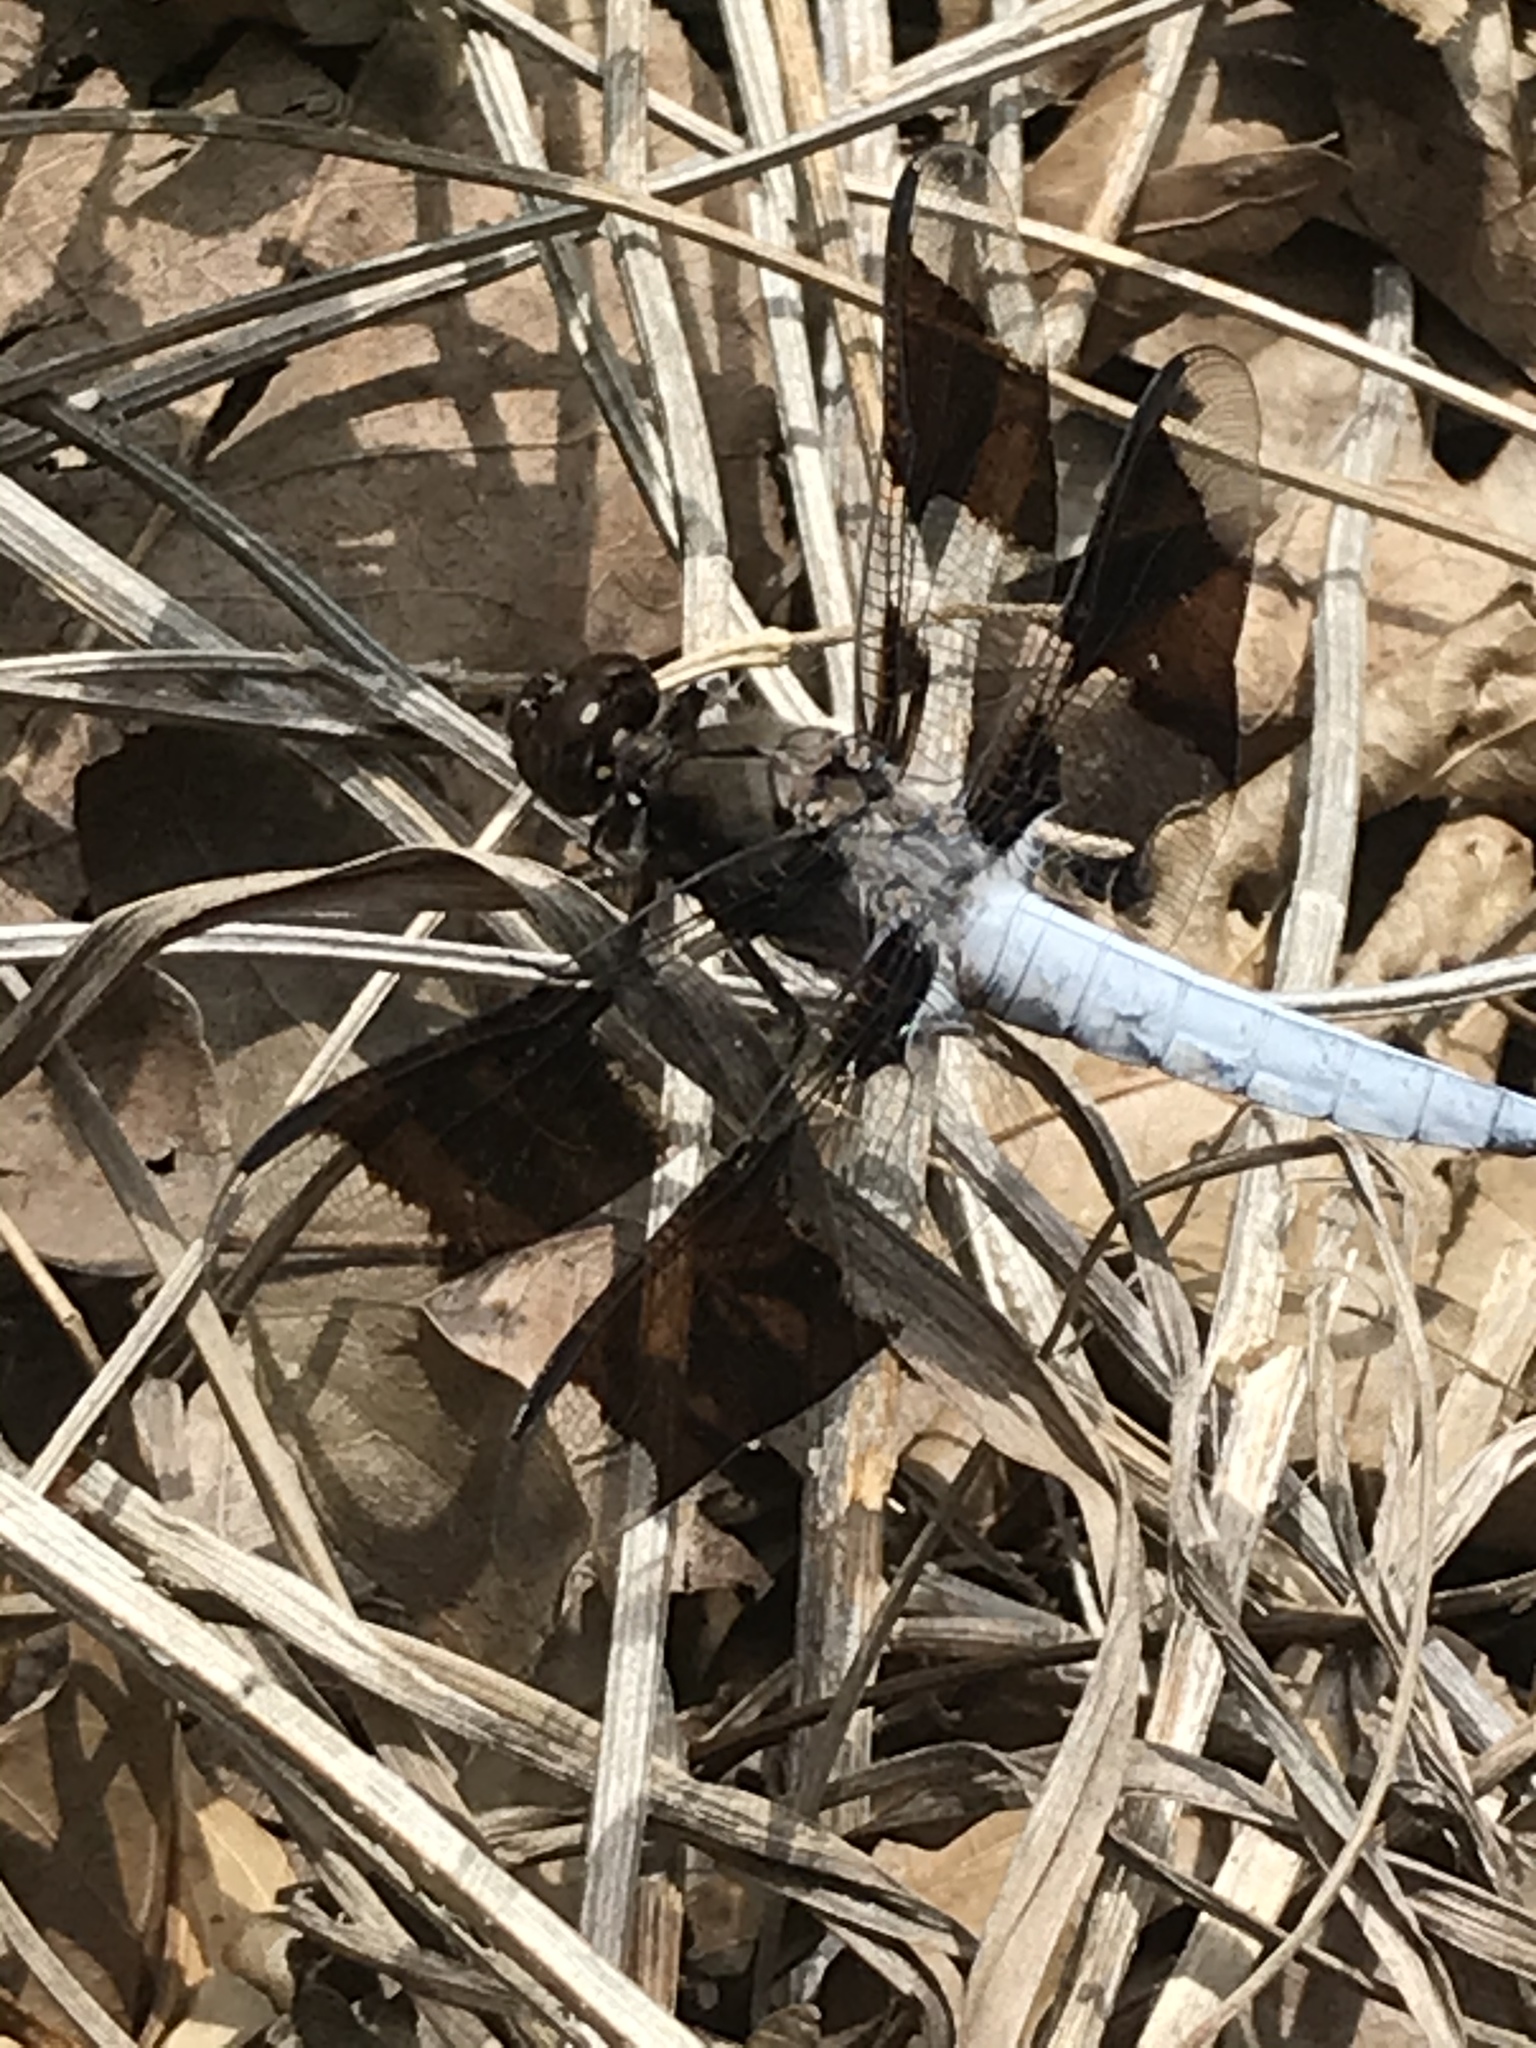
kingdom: Animalia
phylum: Arthropoda
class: Insecta
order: Odonata
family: Libellulidae
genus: Plathemis
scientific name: Plathemis lydia
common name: Common whitetail
